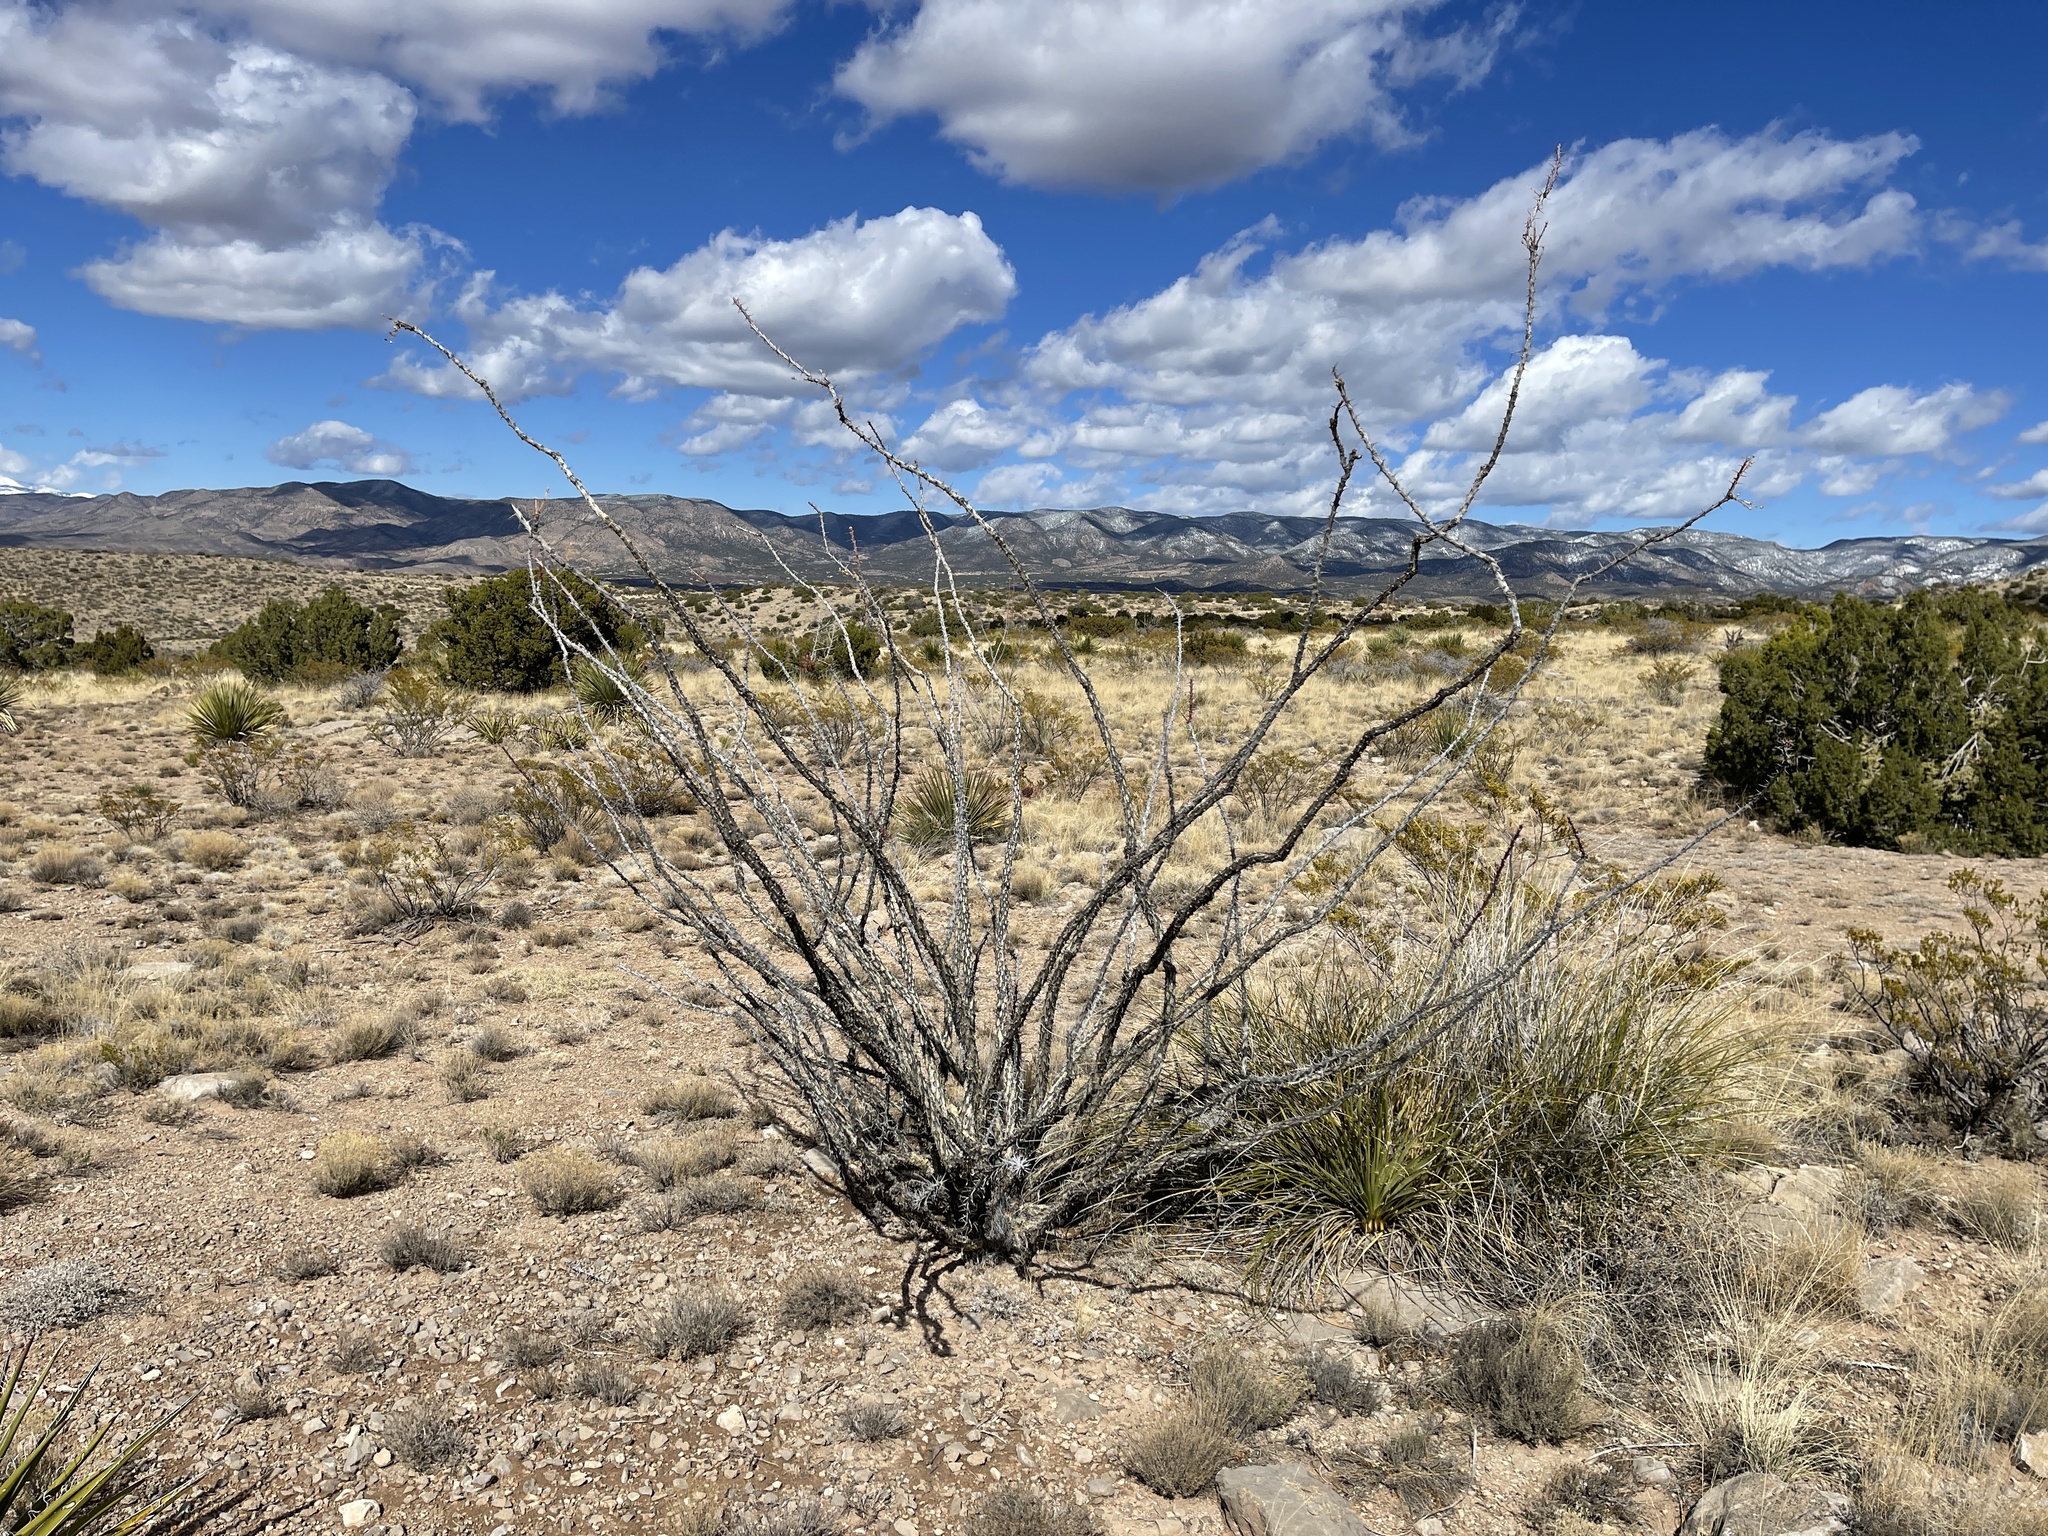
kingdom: Plantae
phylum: Tracheophyta
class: Magnoliopsida
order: Ericales
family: Fouquieriaceae
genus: Fouquieria
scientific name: Fouquieria splendens
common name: Vine-cactus
